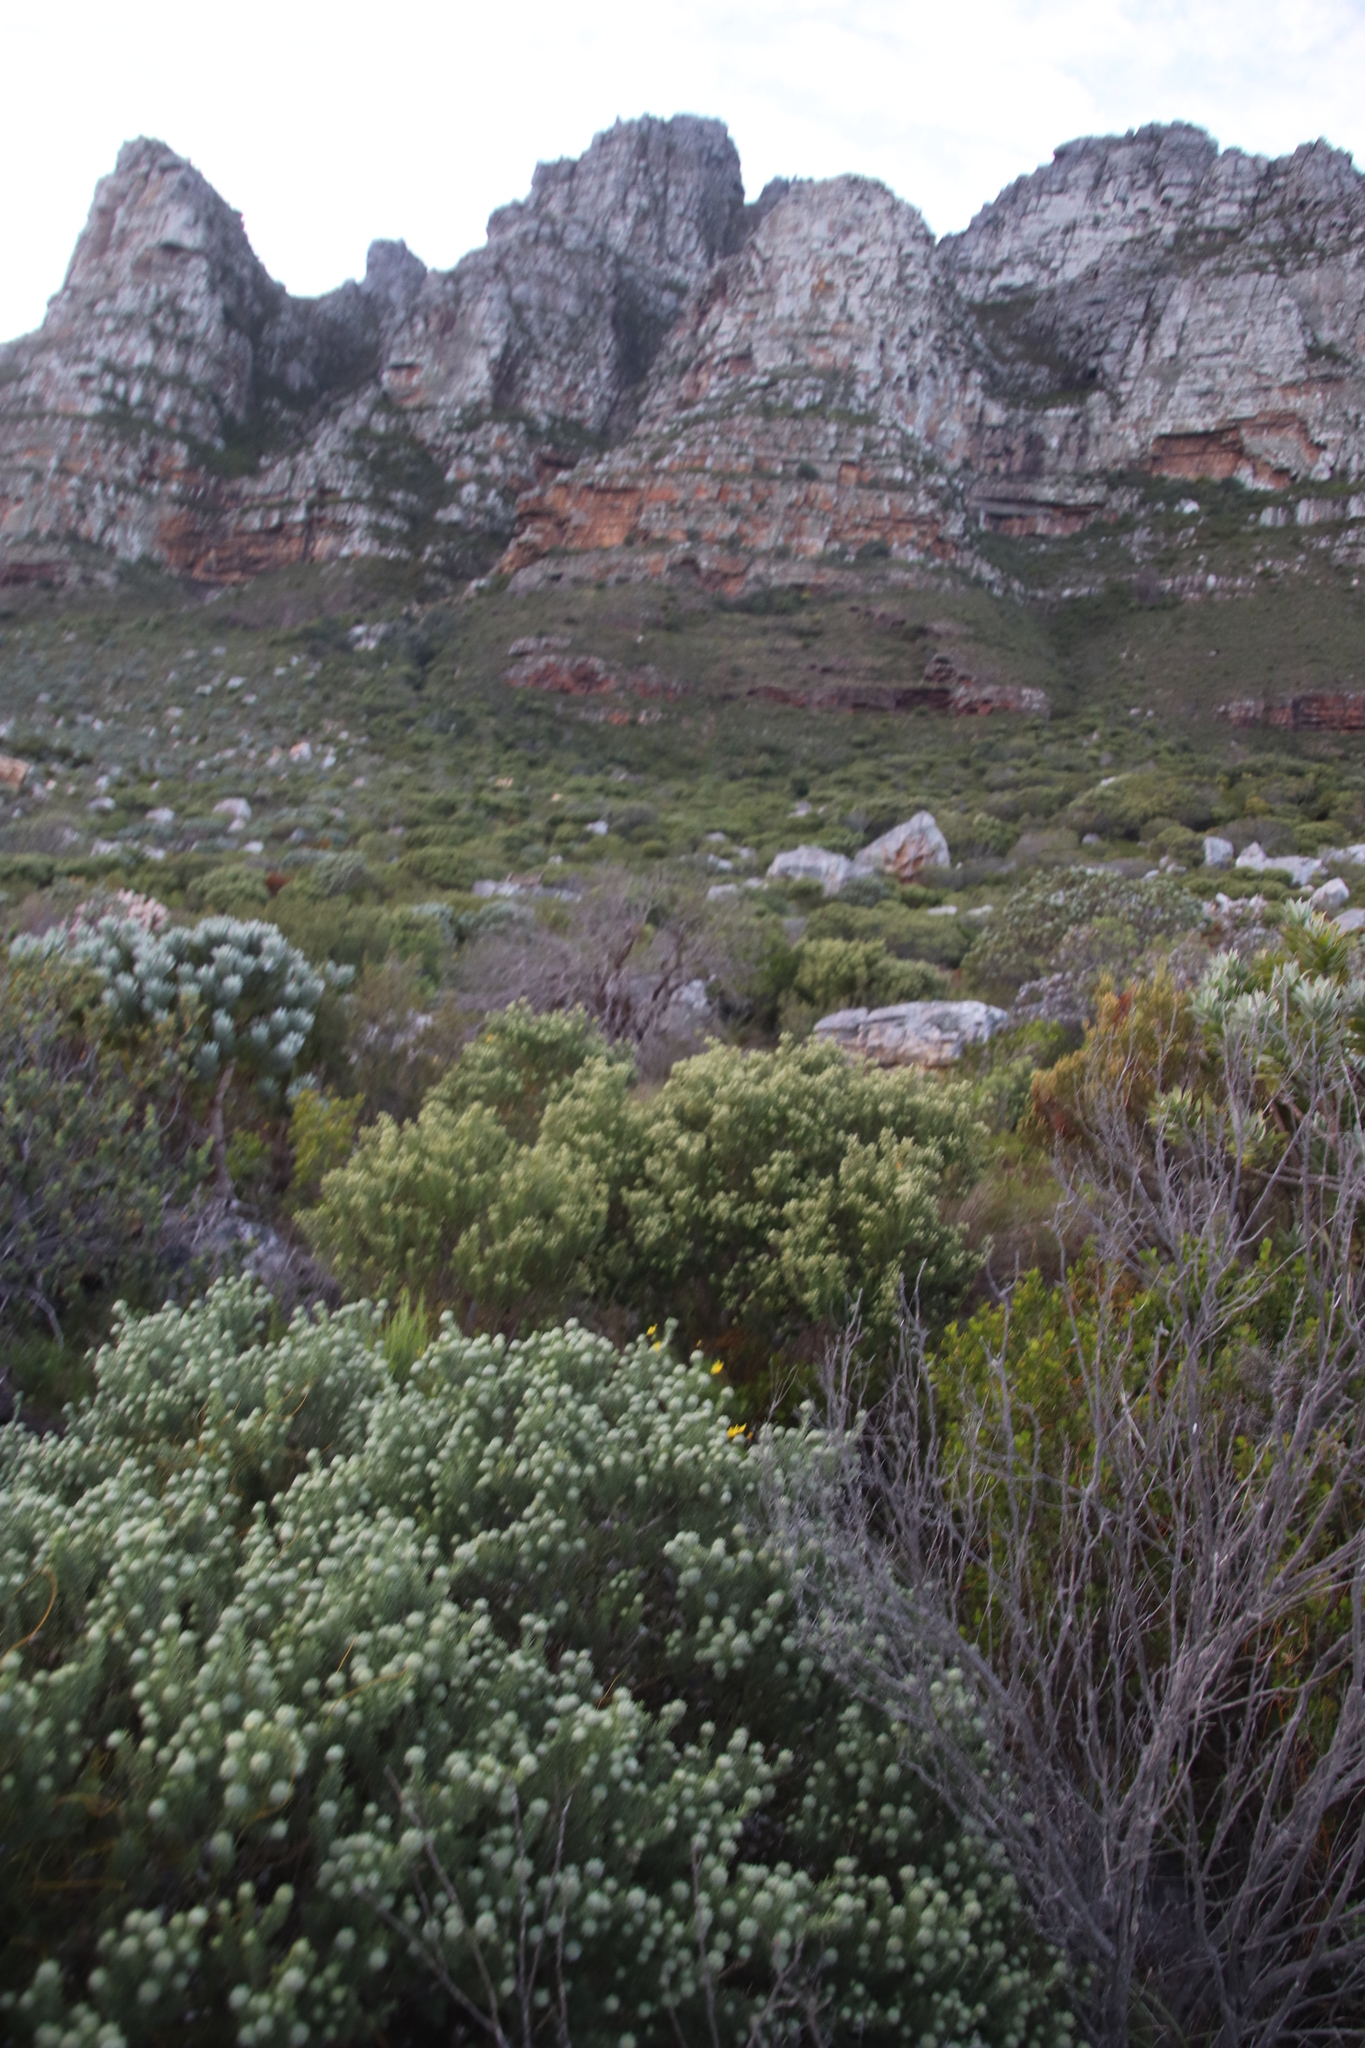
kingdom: Plantae
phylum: Tracheophyta
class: Magnoliopsida
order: Rosales
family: Rhamnaceae
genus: Phylica
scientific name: Phylica buxifolia
